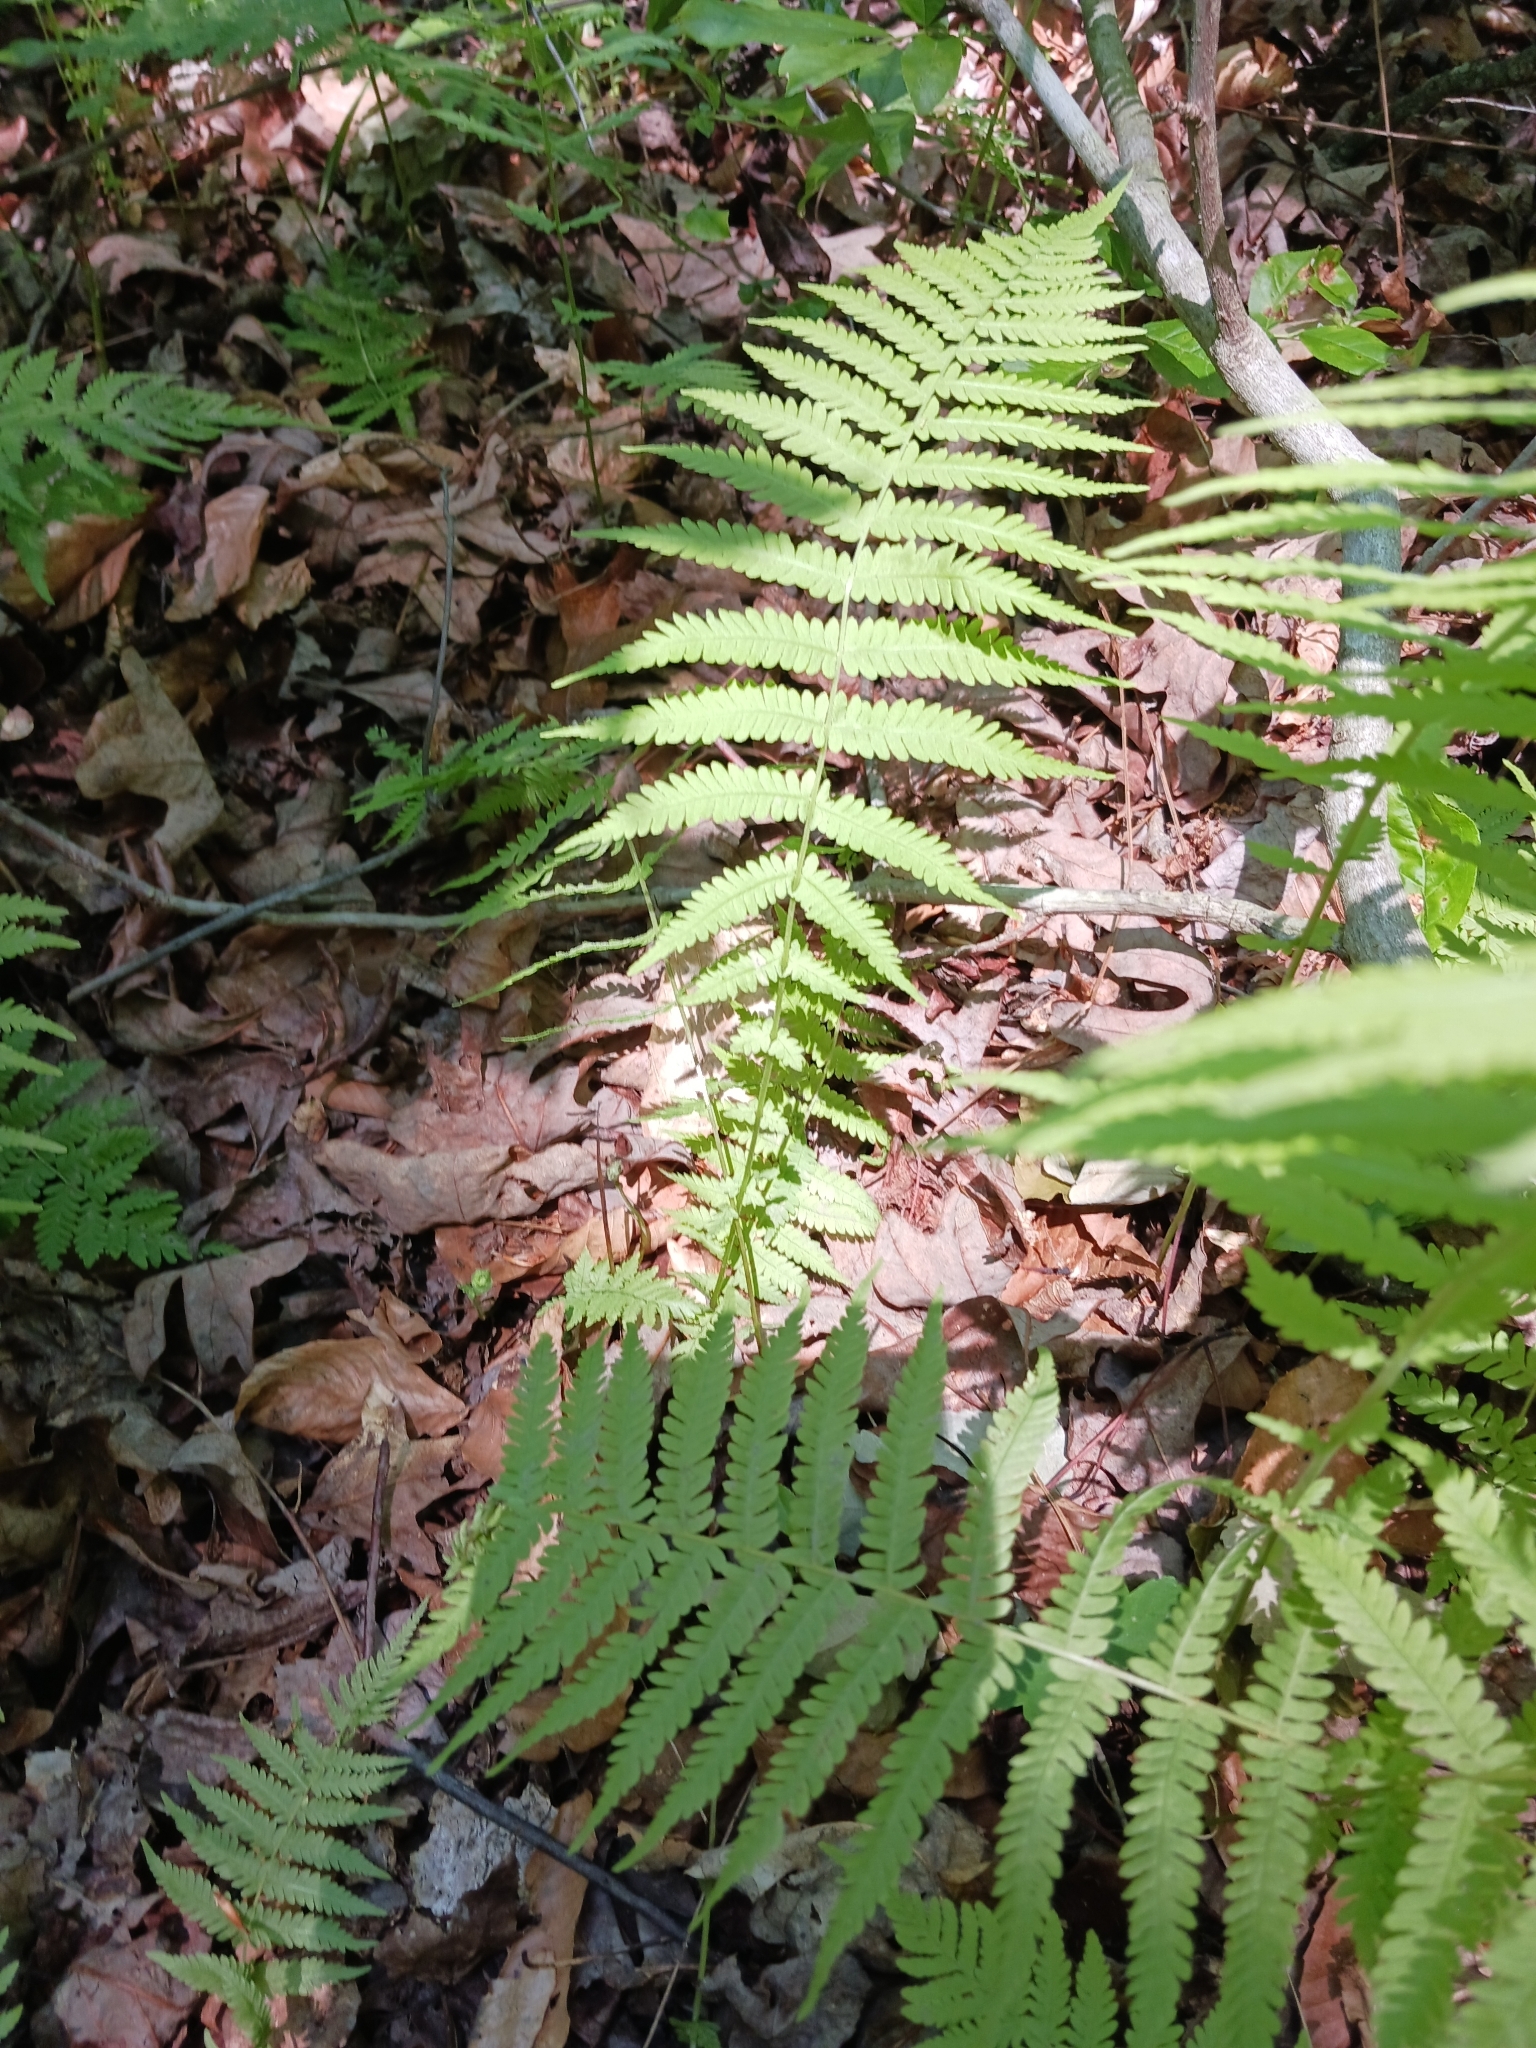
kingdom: Plantae
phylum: Tracheophyta
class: Polypodiopsida
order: Polypodiales
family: Thelypteridaceae
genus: Amauropelta
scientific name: Amauropelta noveboracensis
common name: New york fern
